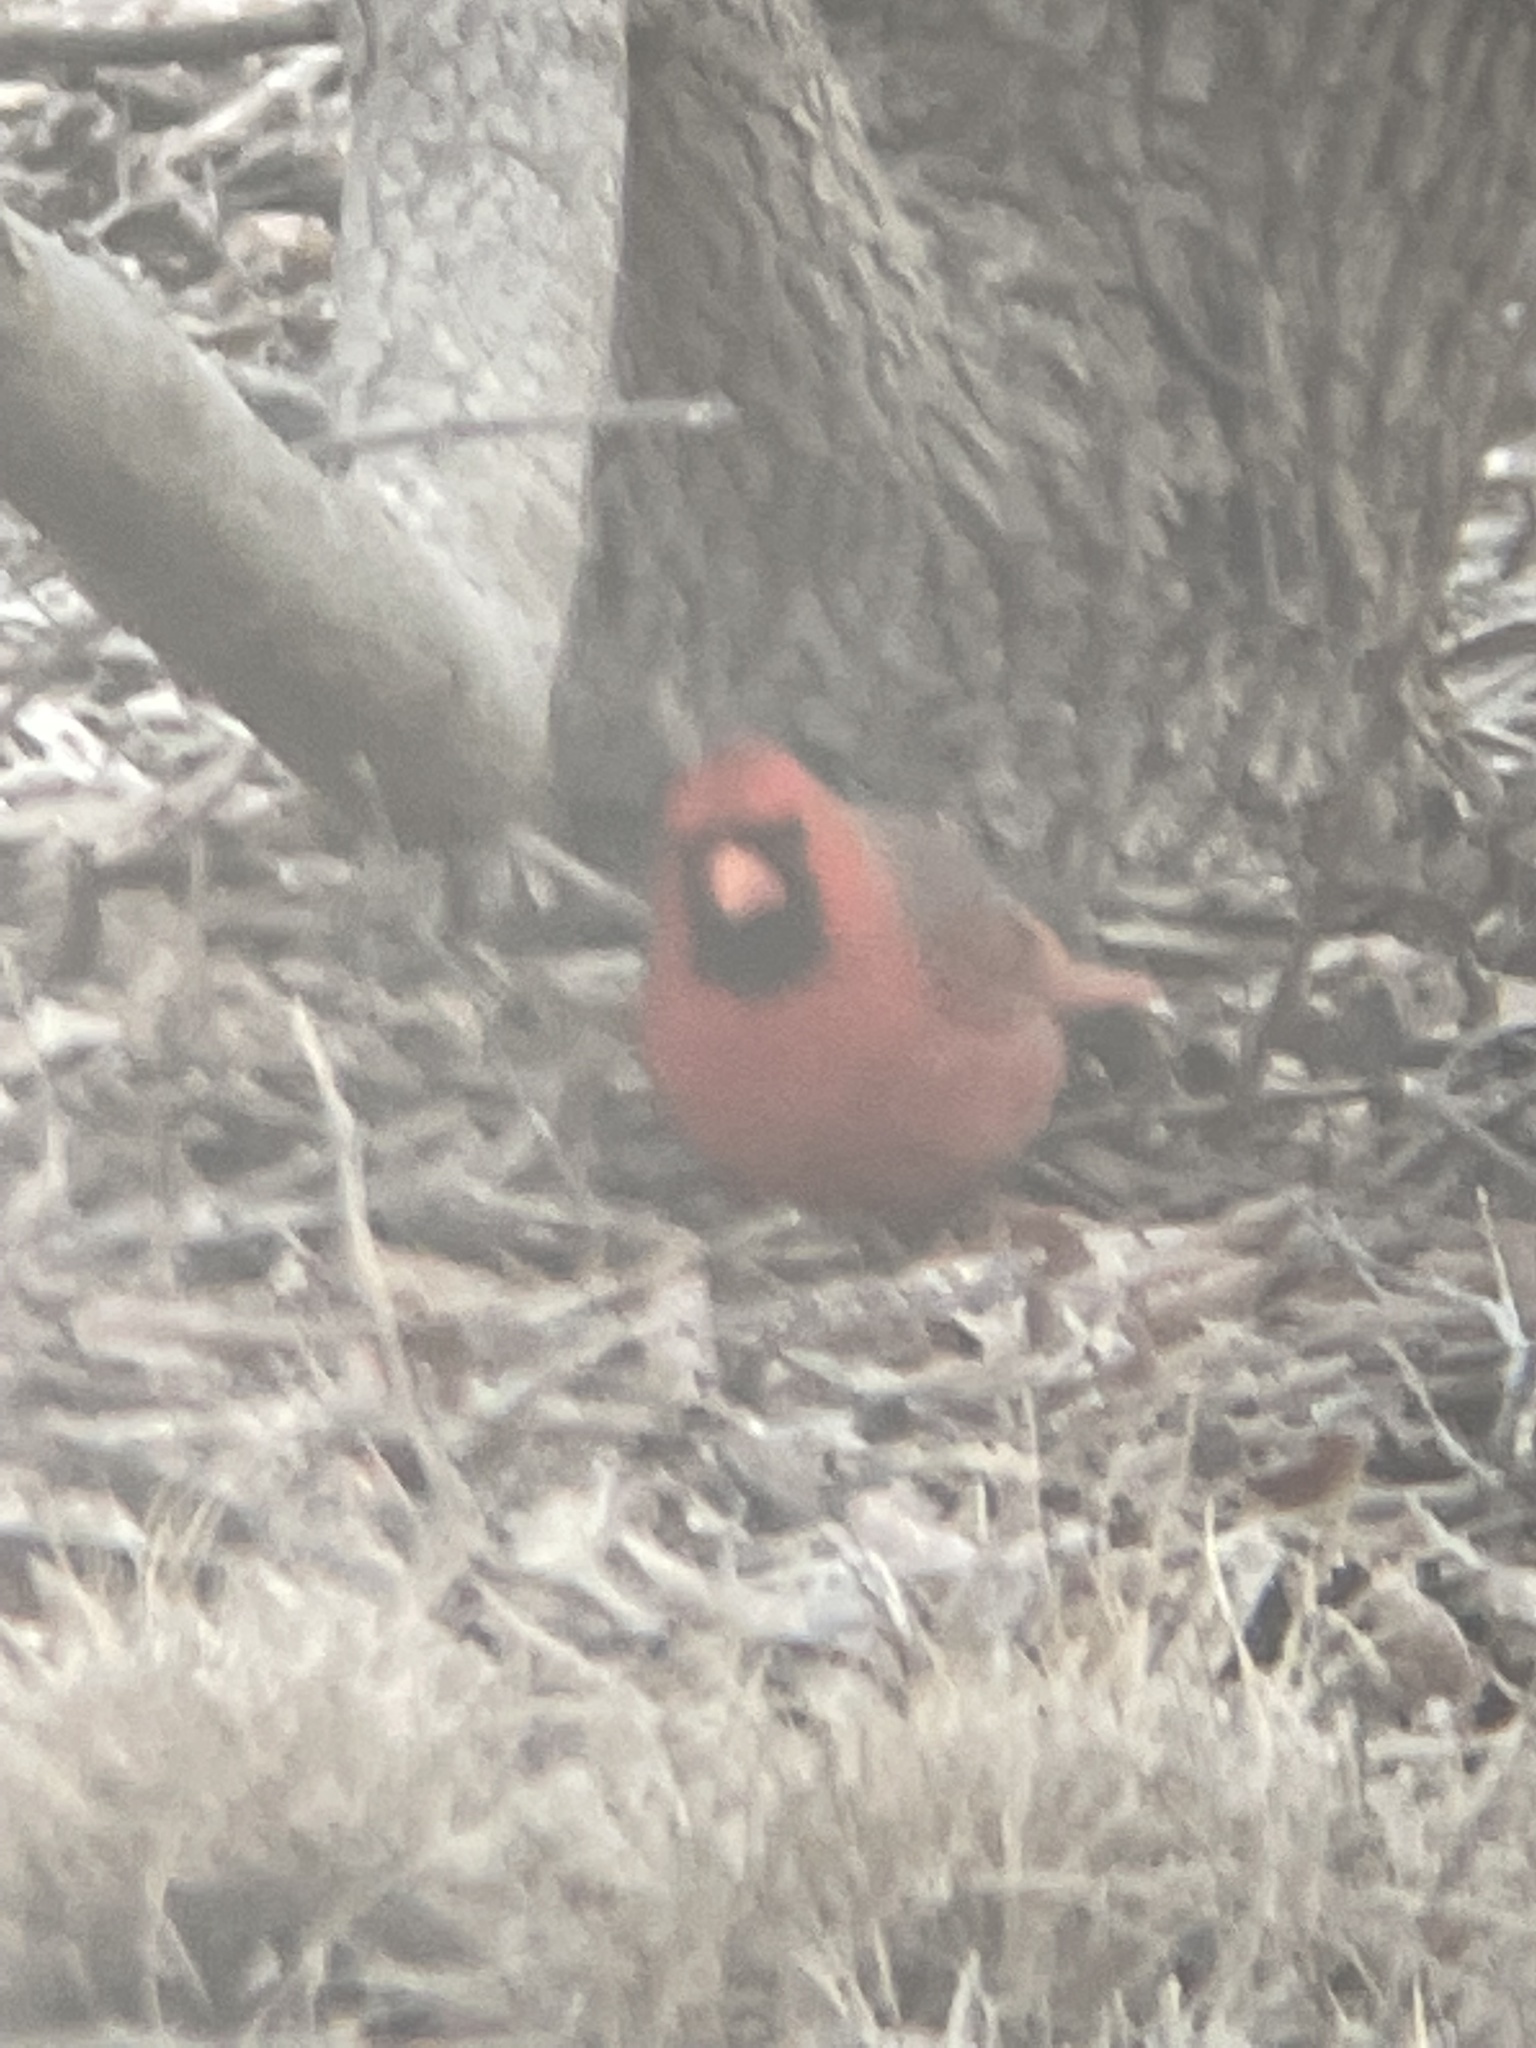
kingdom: Animalia
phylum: Chordata
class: Aves
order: Passeriformes
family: Cardinalidae
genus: Cardinalis
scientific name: Cardinalis cardinalis
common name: Northern cardinal
